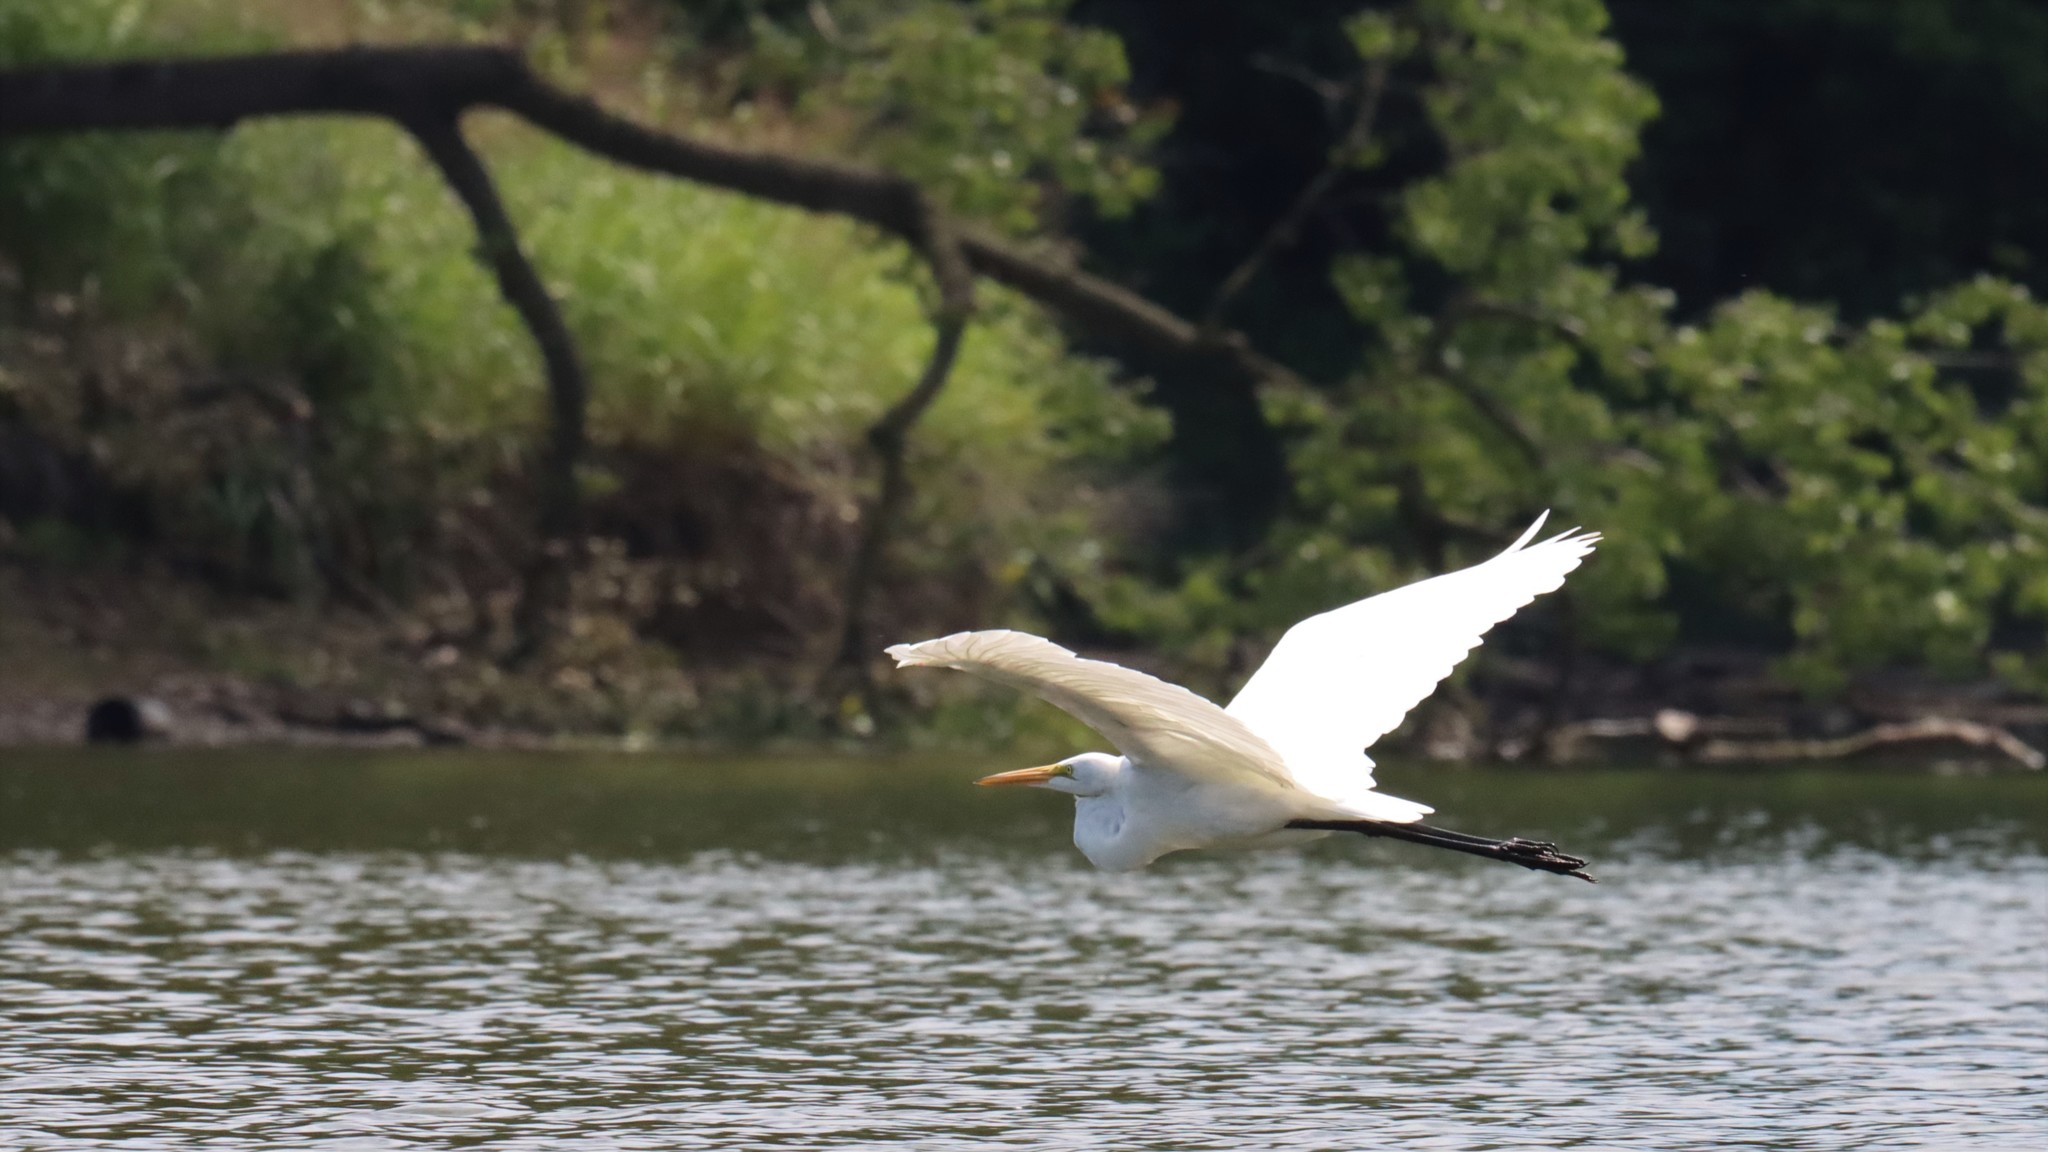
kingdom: Animalia
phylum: Chordata
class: Aves
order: Pelecaniformes
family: Ardeidae
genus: Ardea
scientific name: Ardea alba
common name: Great egret
